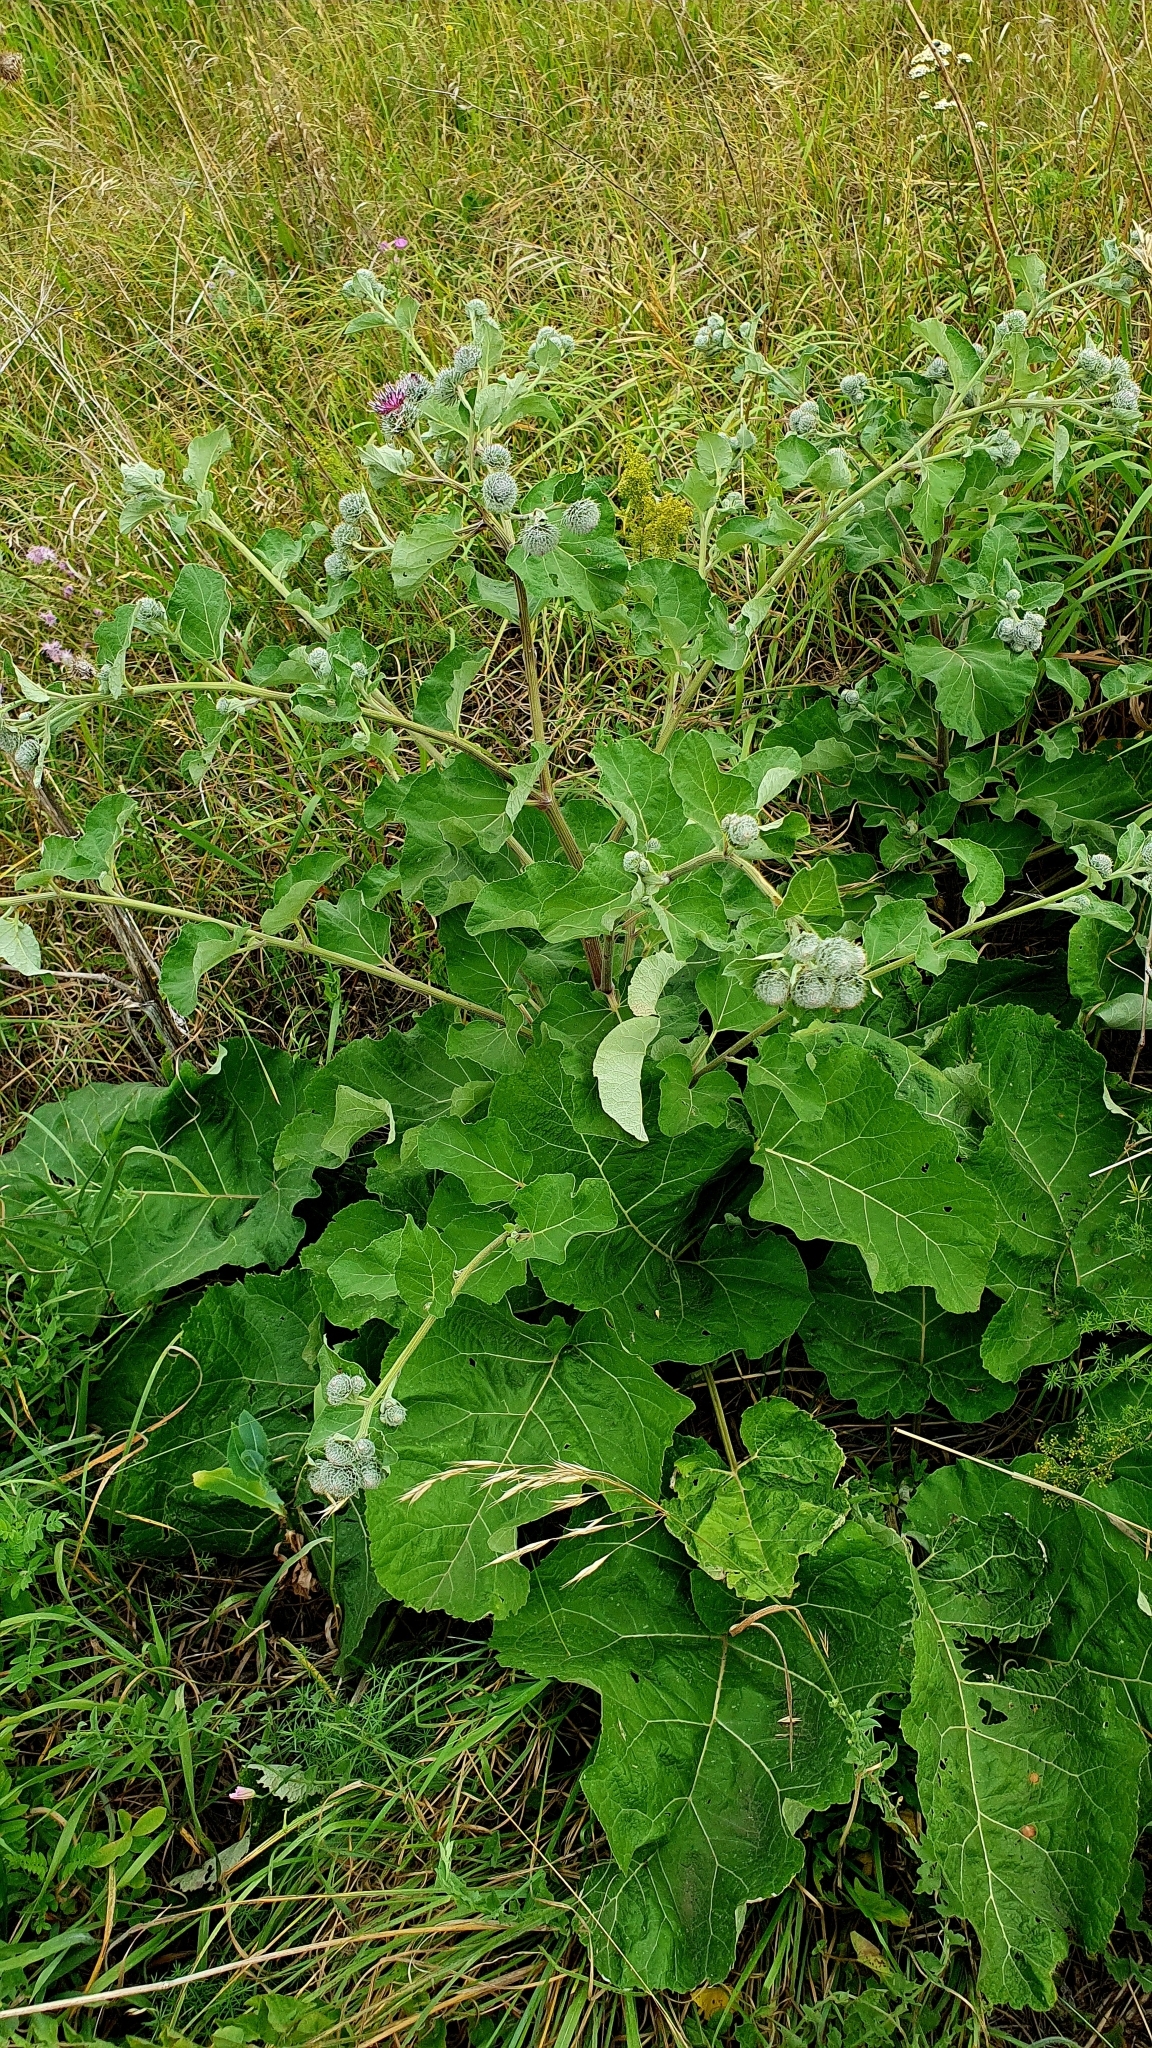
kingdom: Plantae
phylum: Tracheophyta
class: Magnoliopsida
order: Asterales
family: Asteraceae
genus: Arctium
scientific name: Arctium tomentosum
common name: Woolly burdock
